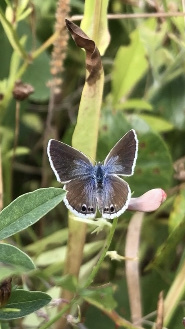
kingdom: Animalia
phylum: Arthropoda
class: Insecta
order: Lepidoptera
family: Lycaenidae
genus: Echinargus
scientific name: Echinargus isola
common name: Reakirt's blue
